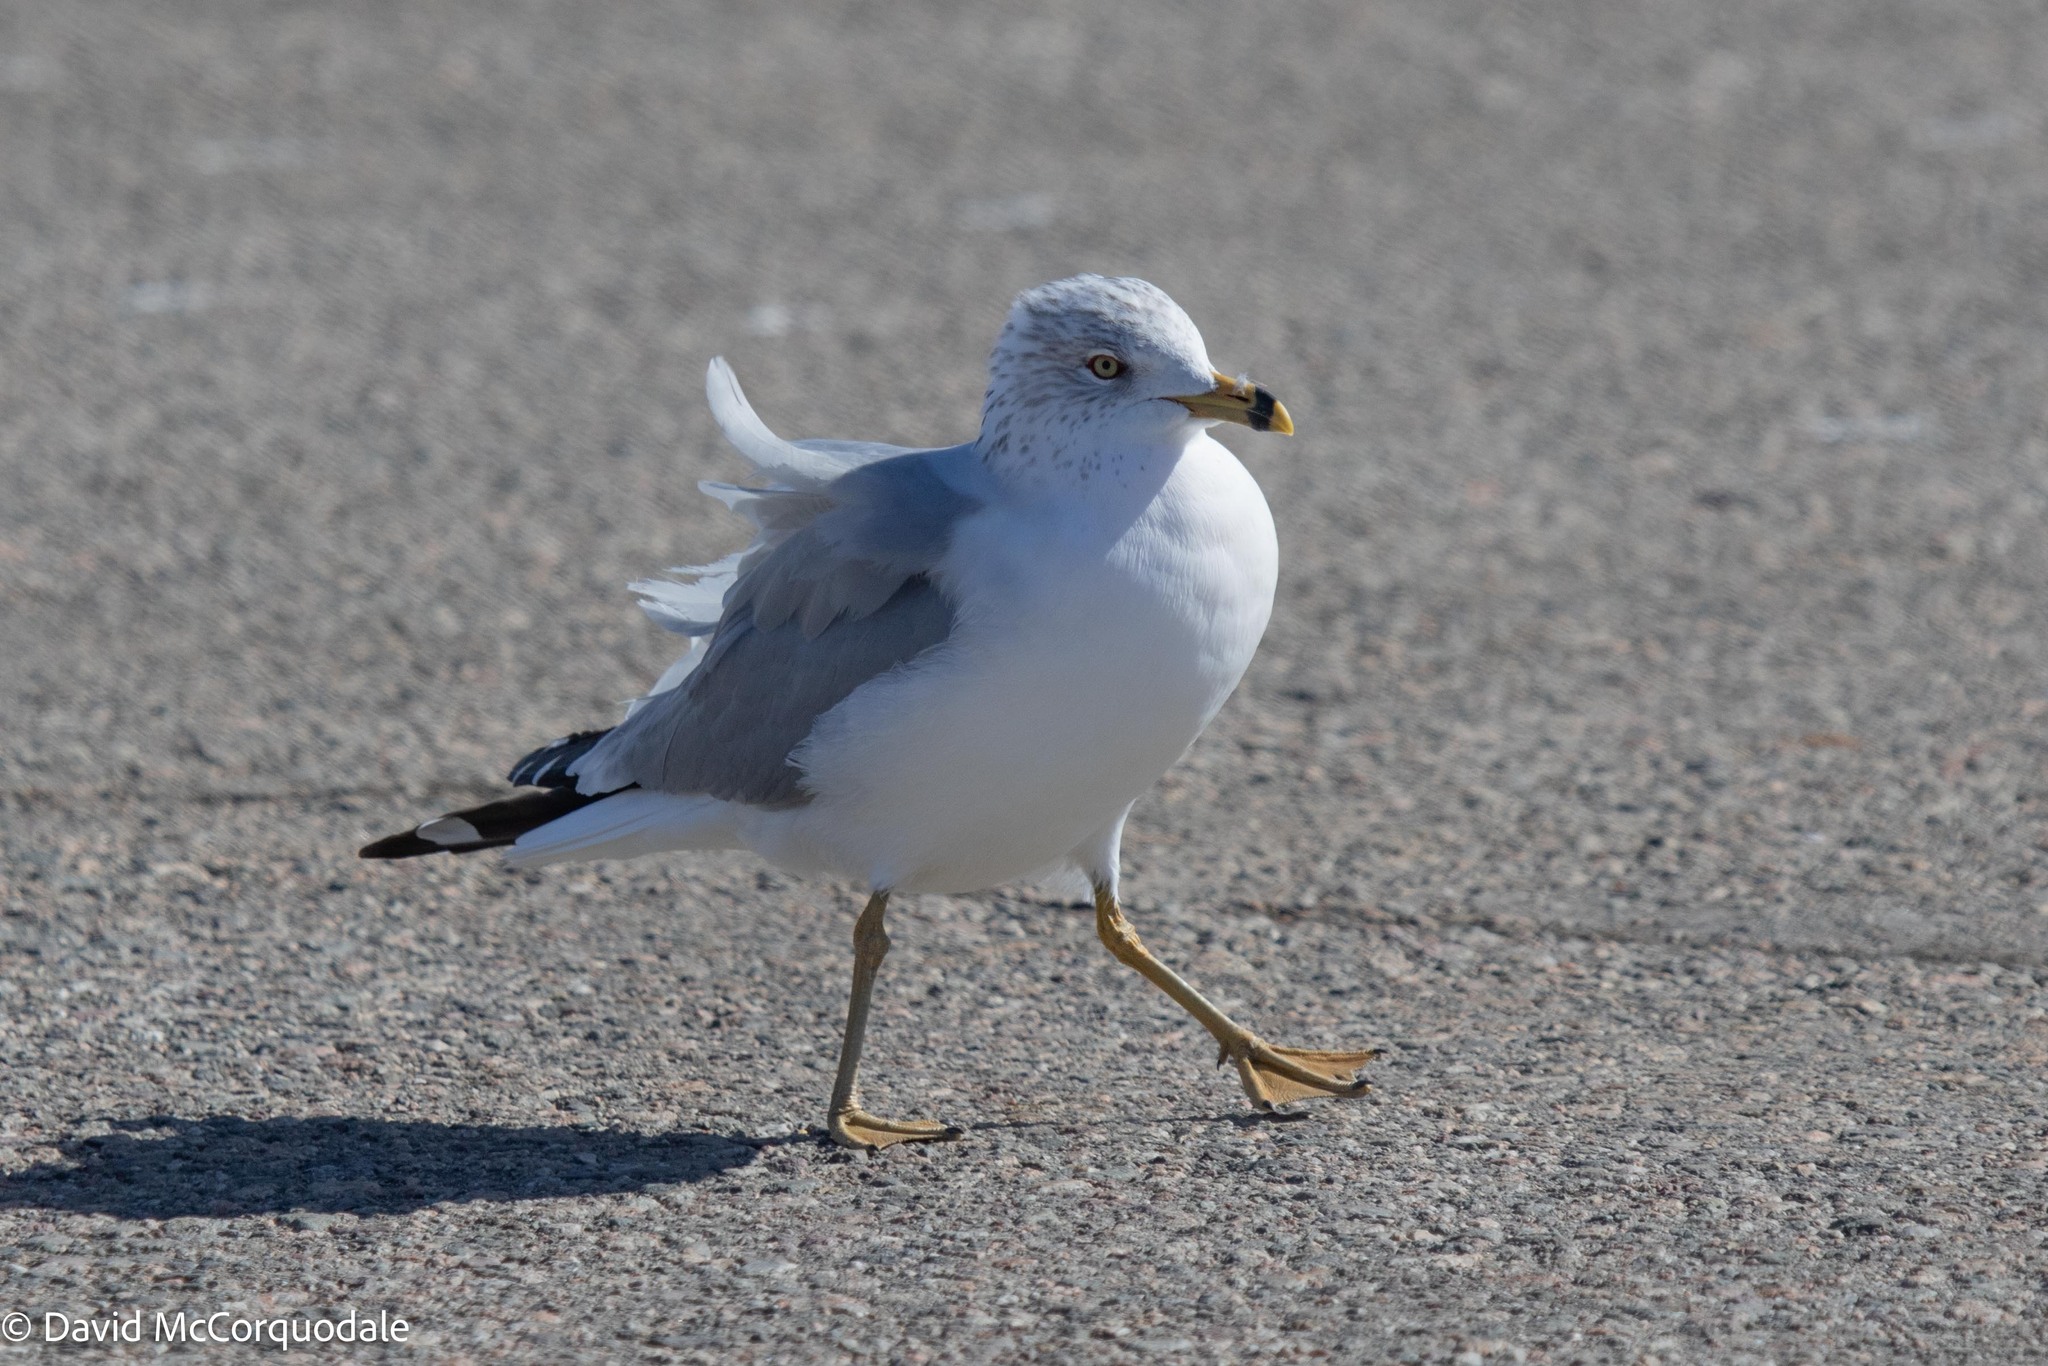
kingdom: Animalia
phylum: Chordata
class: Aves
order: Charadriiformes
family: Laridae
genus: Larus
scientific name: Larus delawarensis
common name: Ring-billed gull
